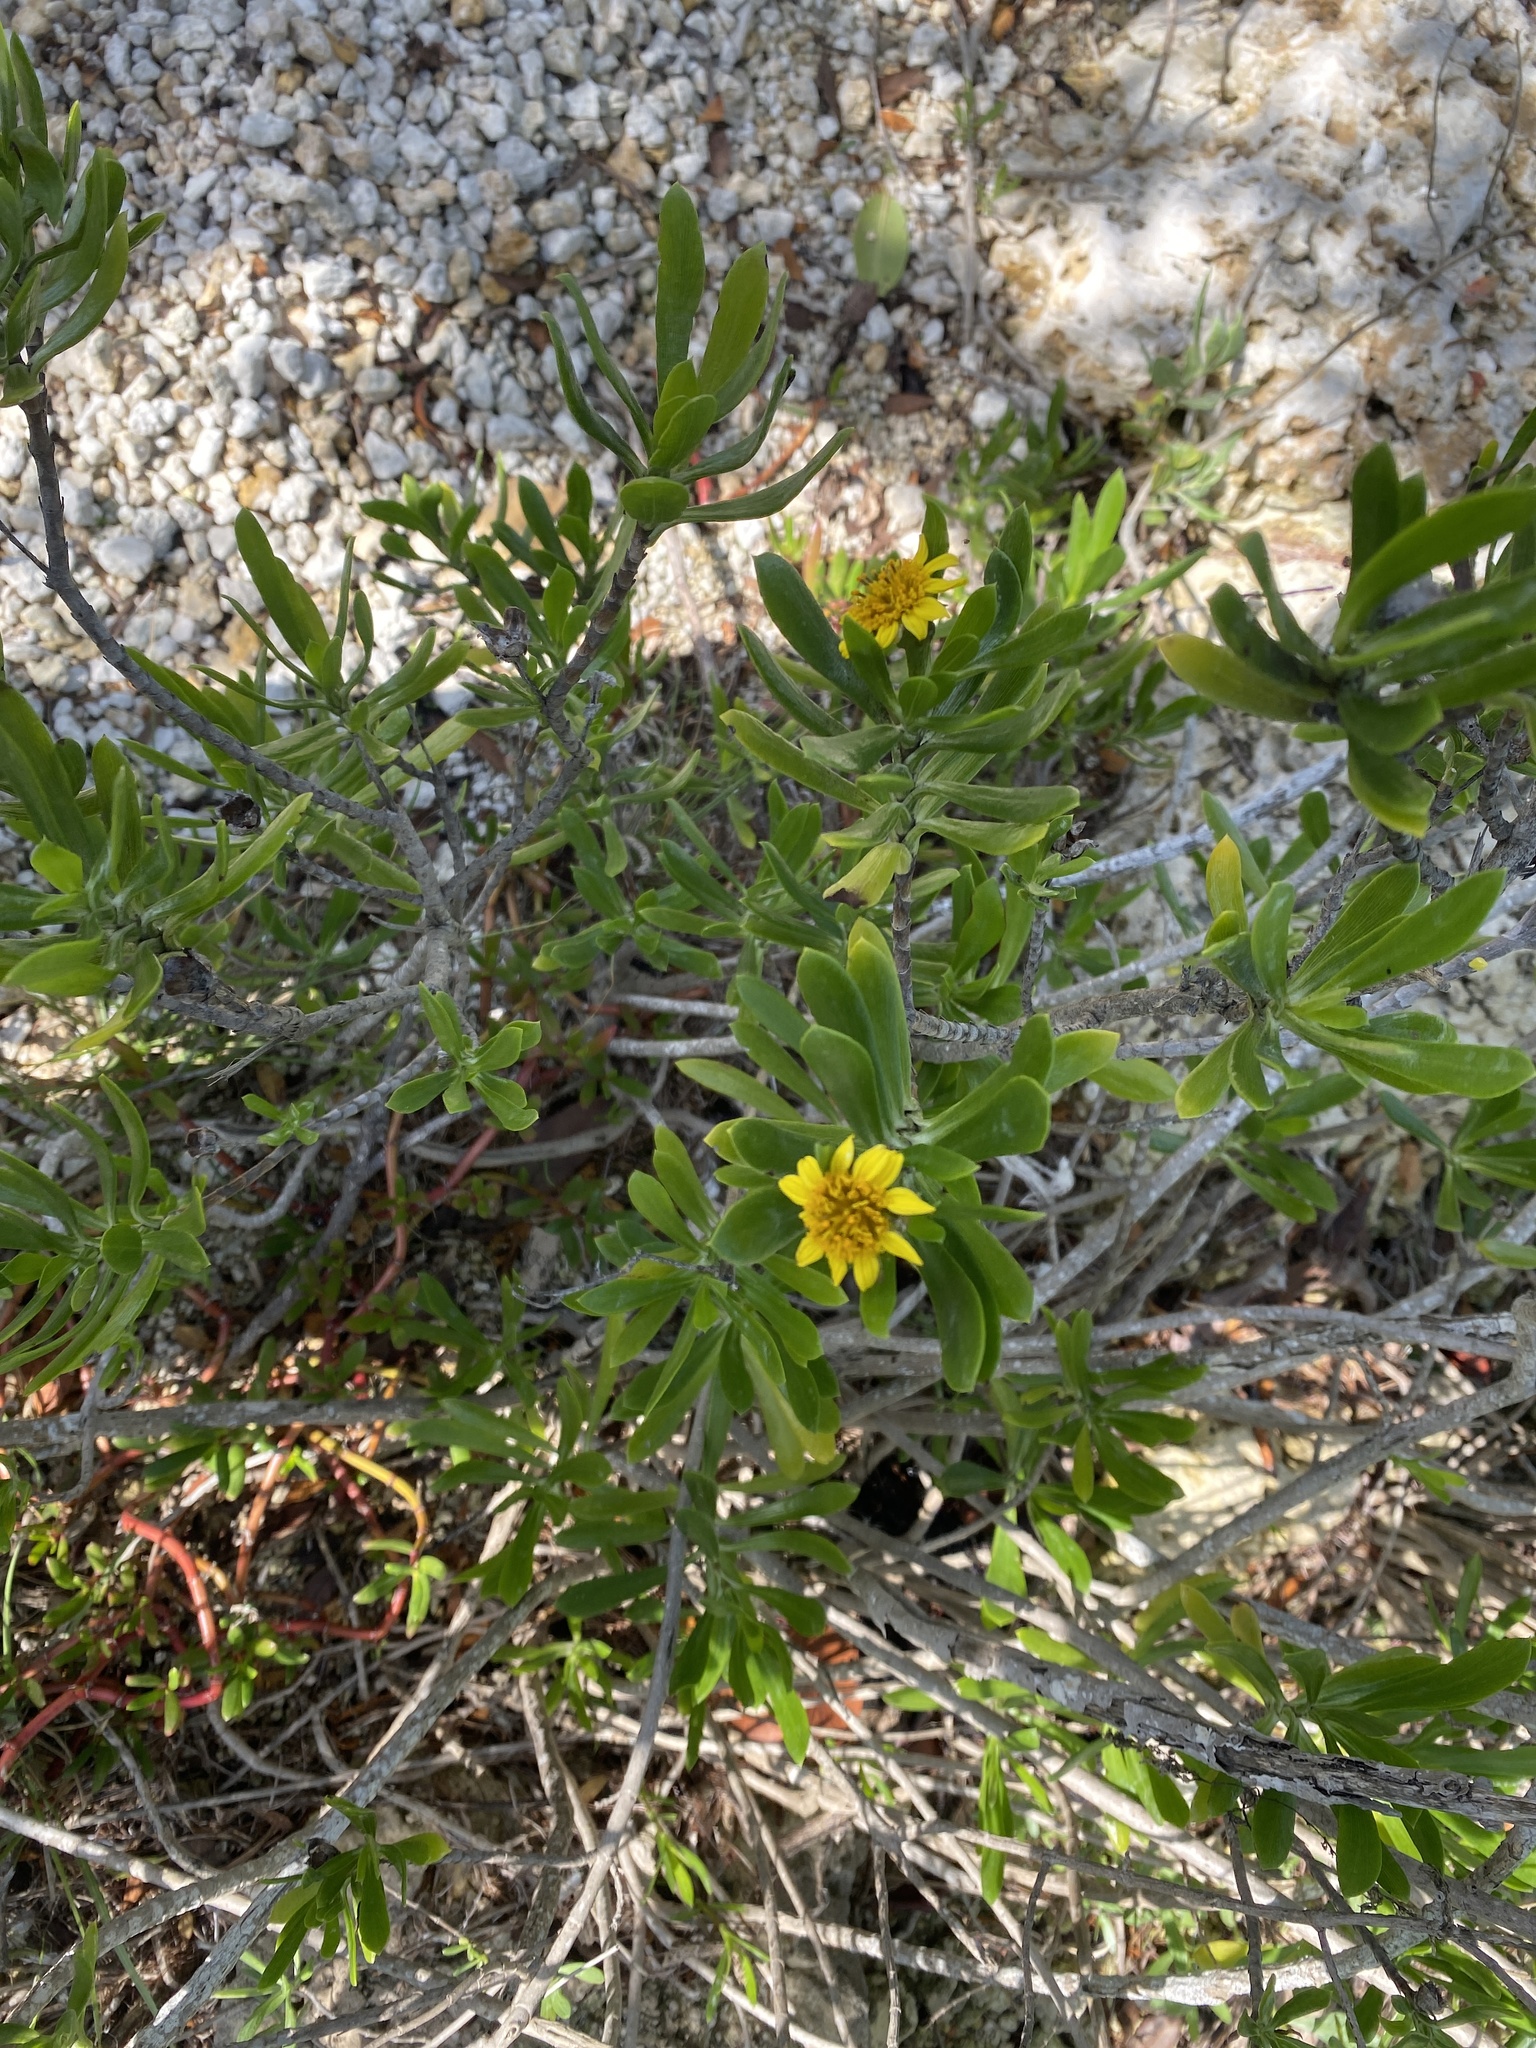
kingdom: Plantae
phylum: Tracheophyta
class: Magnoliopsida
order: Asterales
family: Asteraceae
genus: Borrichia
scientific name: Borrichia frutescens
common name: Sea oxeye
